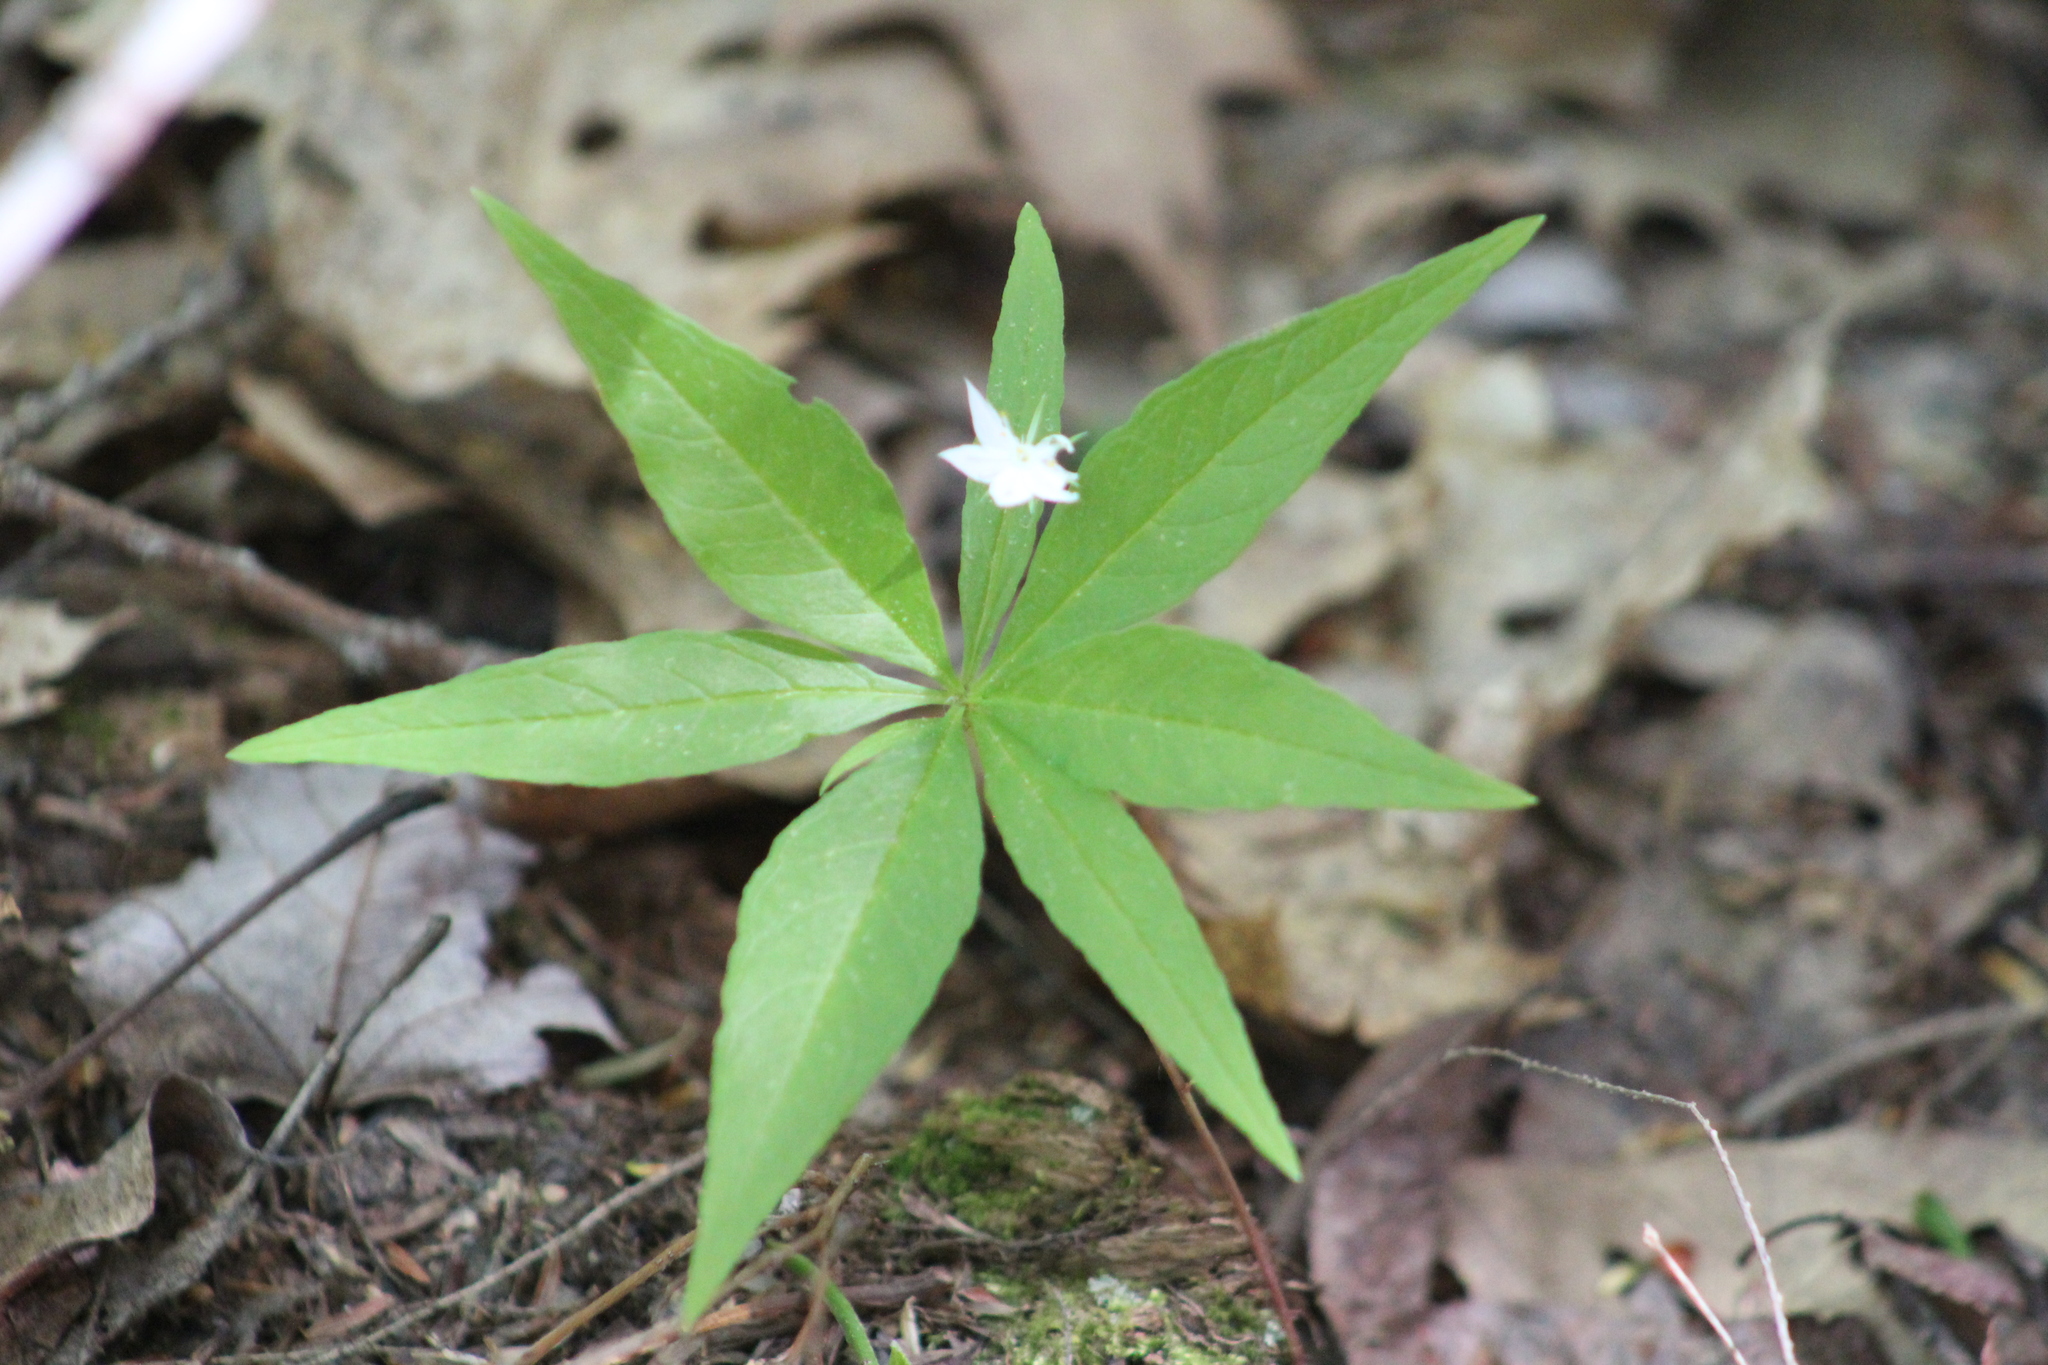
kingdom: Plantae
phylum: Tracheophyta
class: Magnoliopsida
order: Ericales
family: Primulaceae
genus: Lysimachia
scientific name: Lysimachia borealis
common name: American starflower
